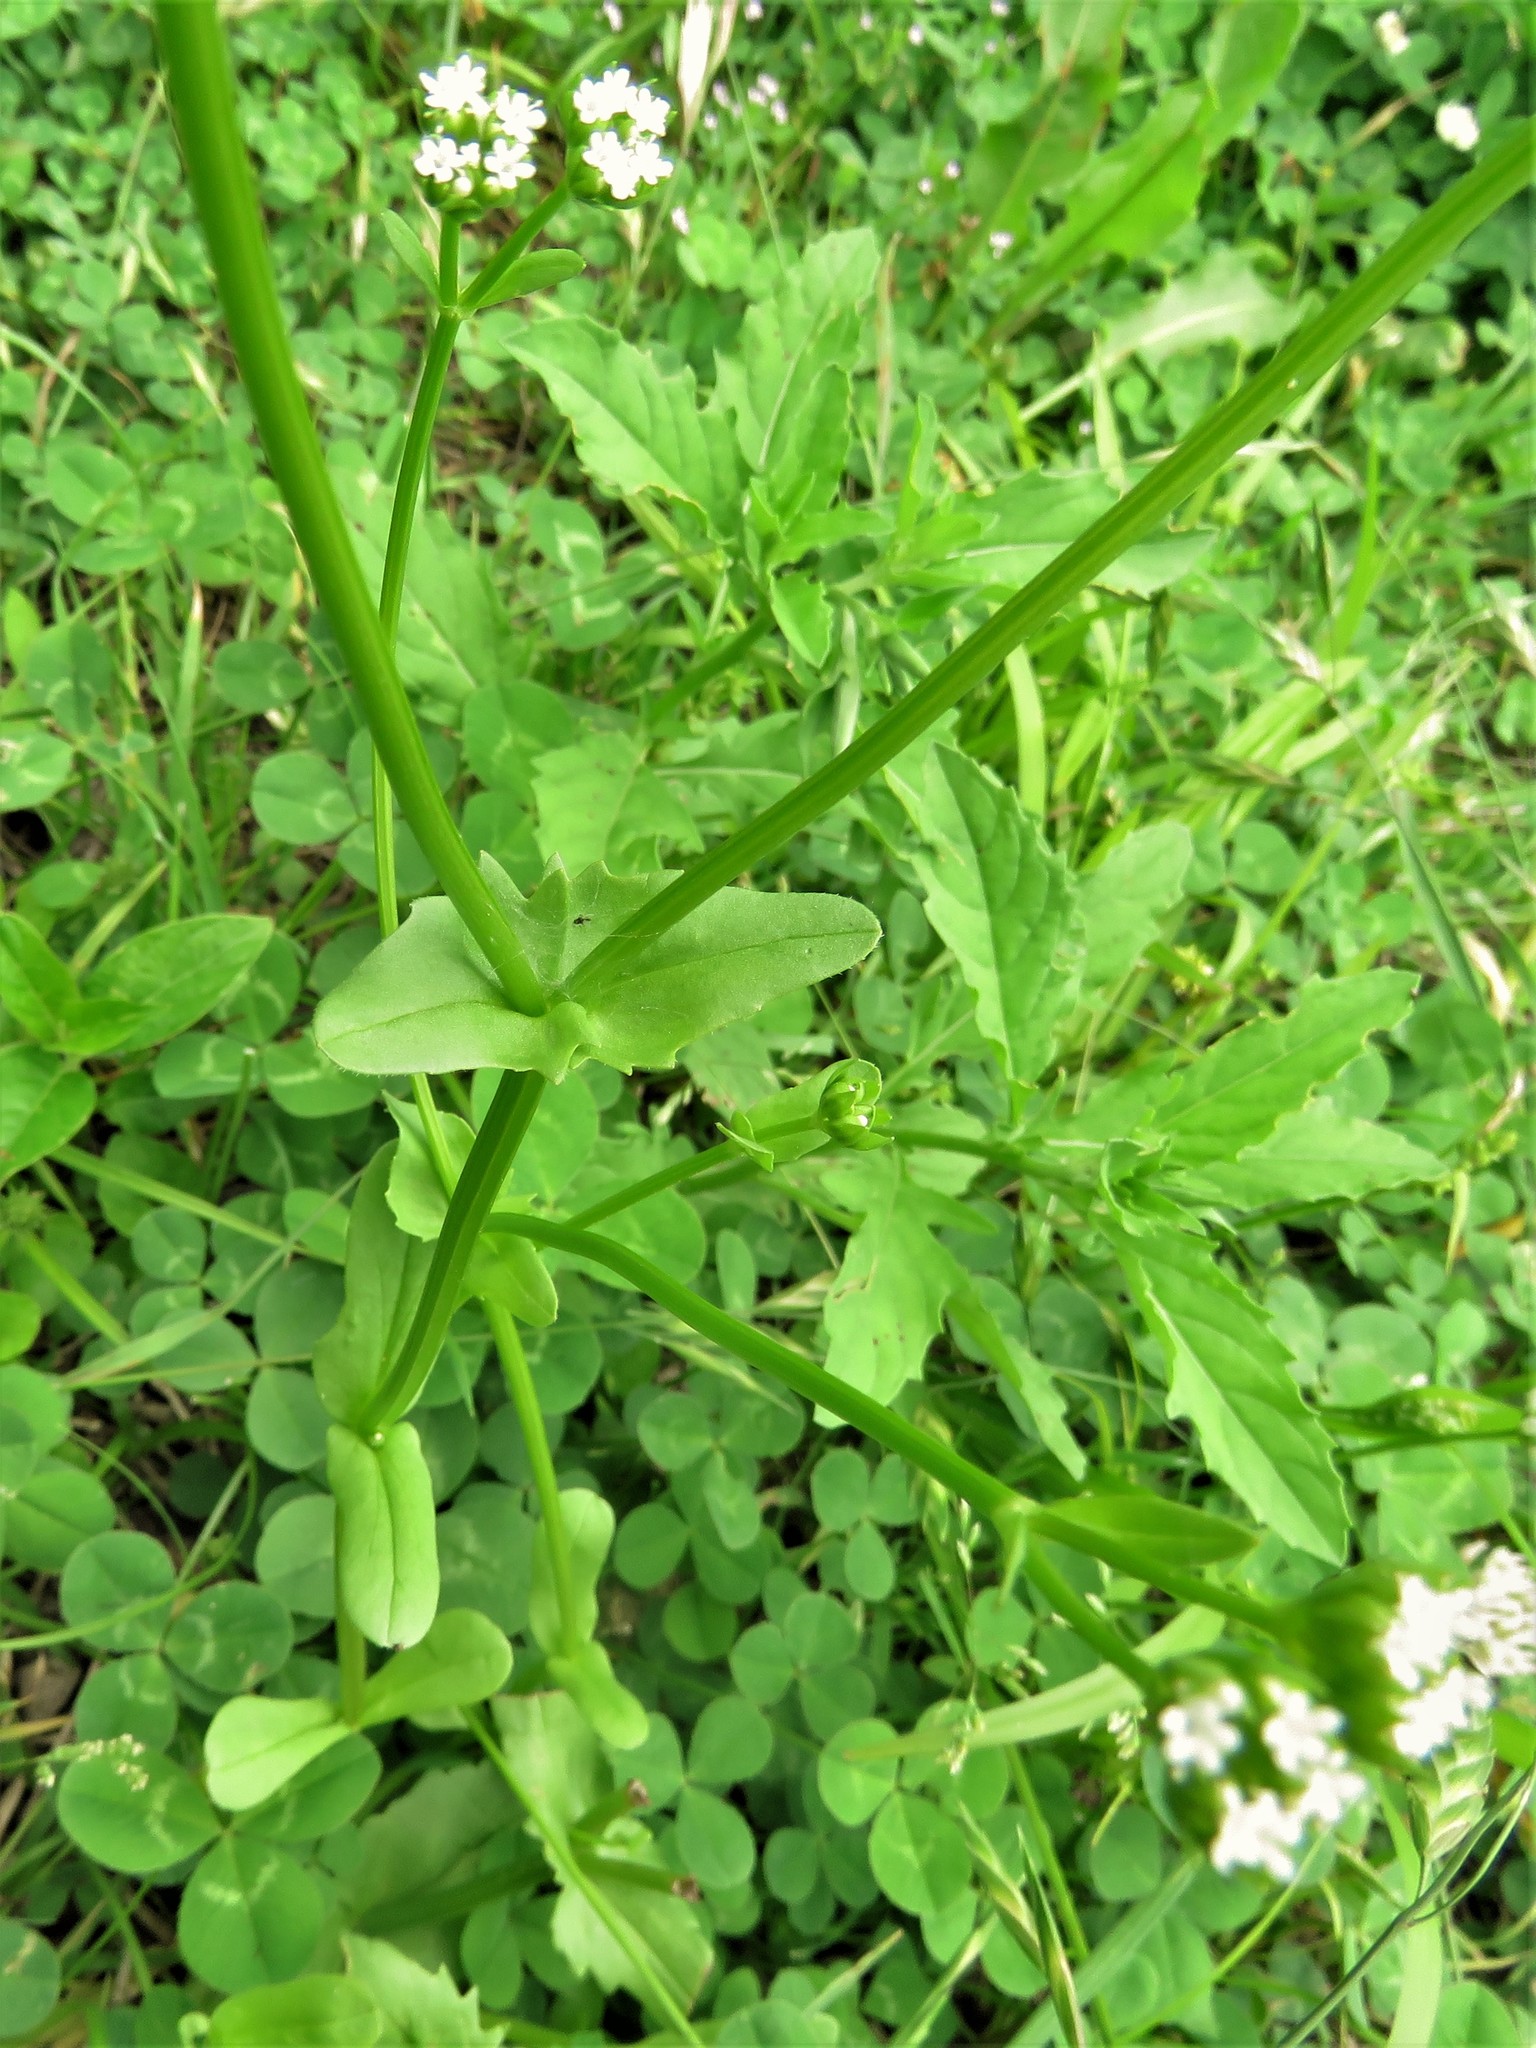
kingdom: Plantae
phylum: Tracheophyta
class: Magnoliopsida
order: Dipsacales
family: Caprifoliaceae
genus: Valerianella
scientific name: Valerianella radiata
